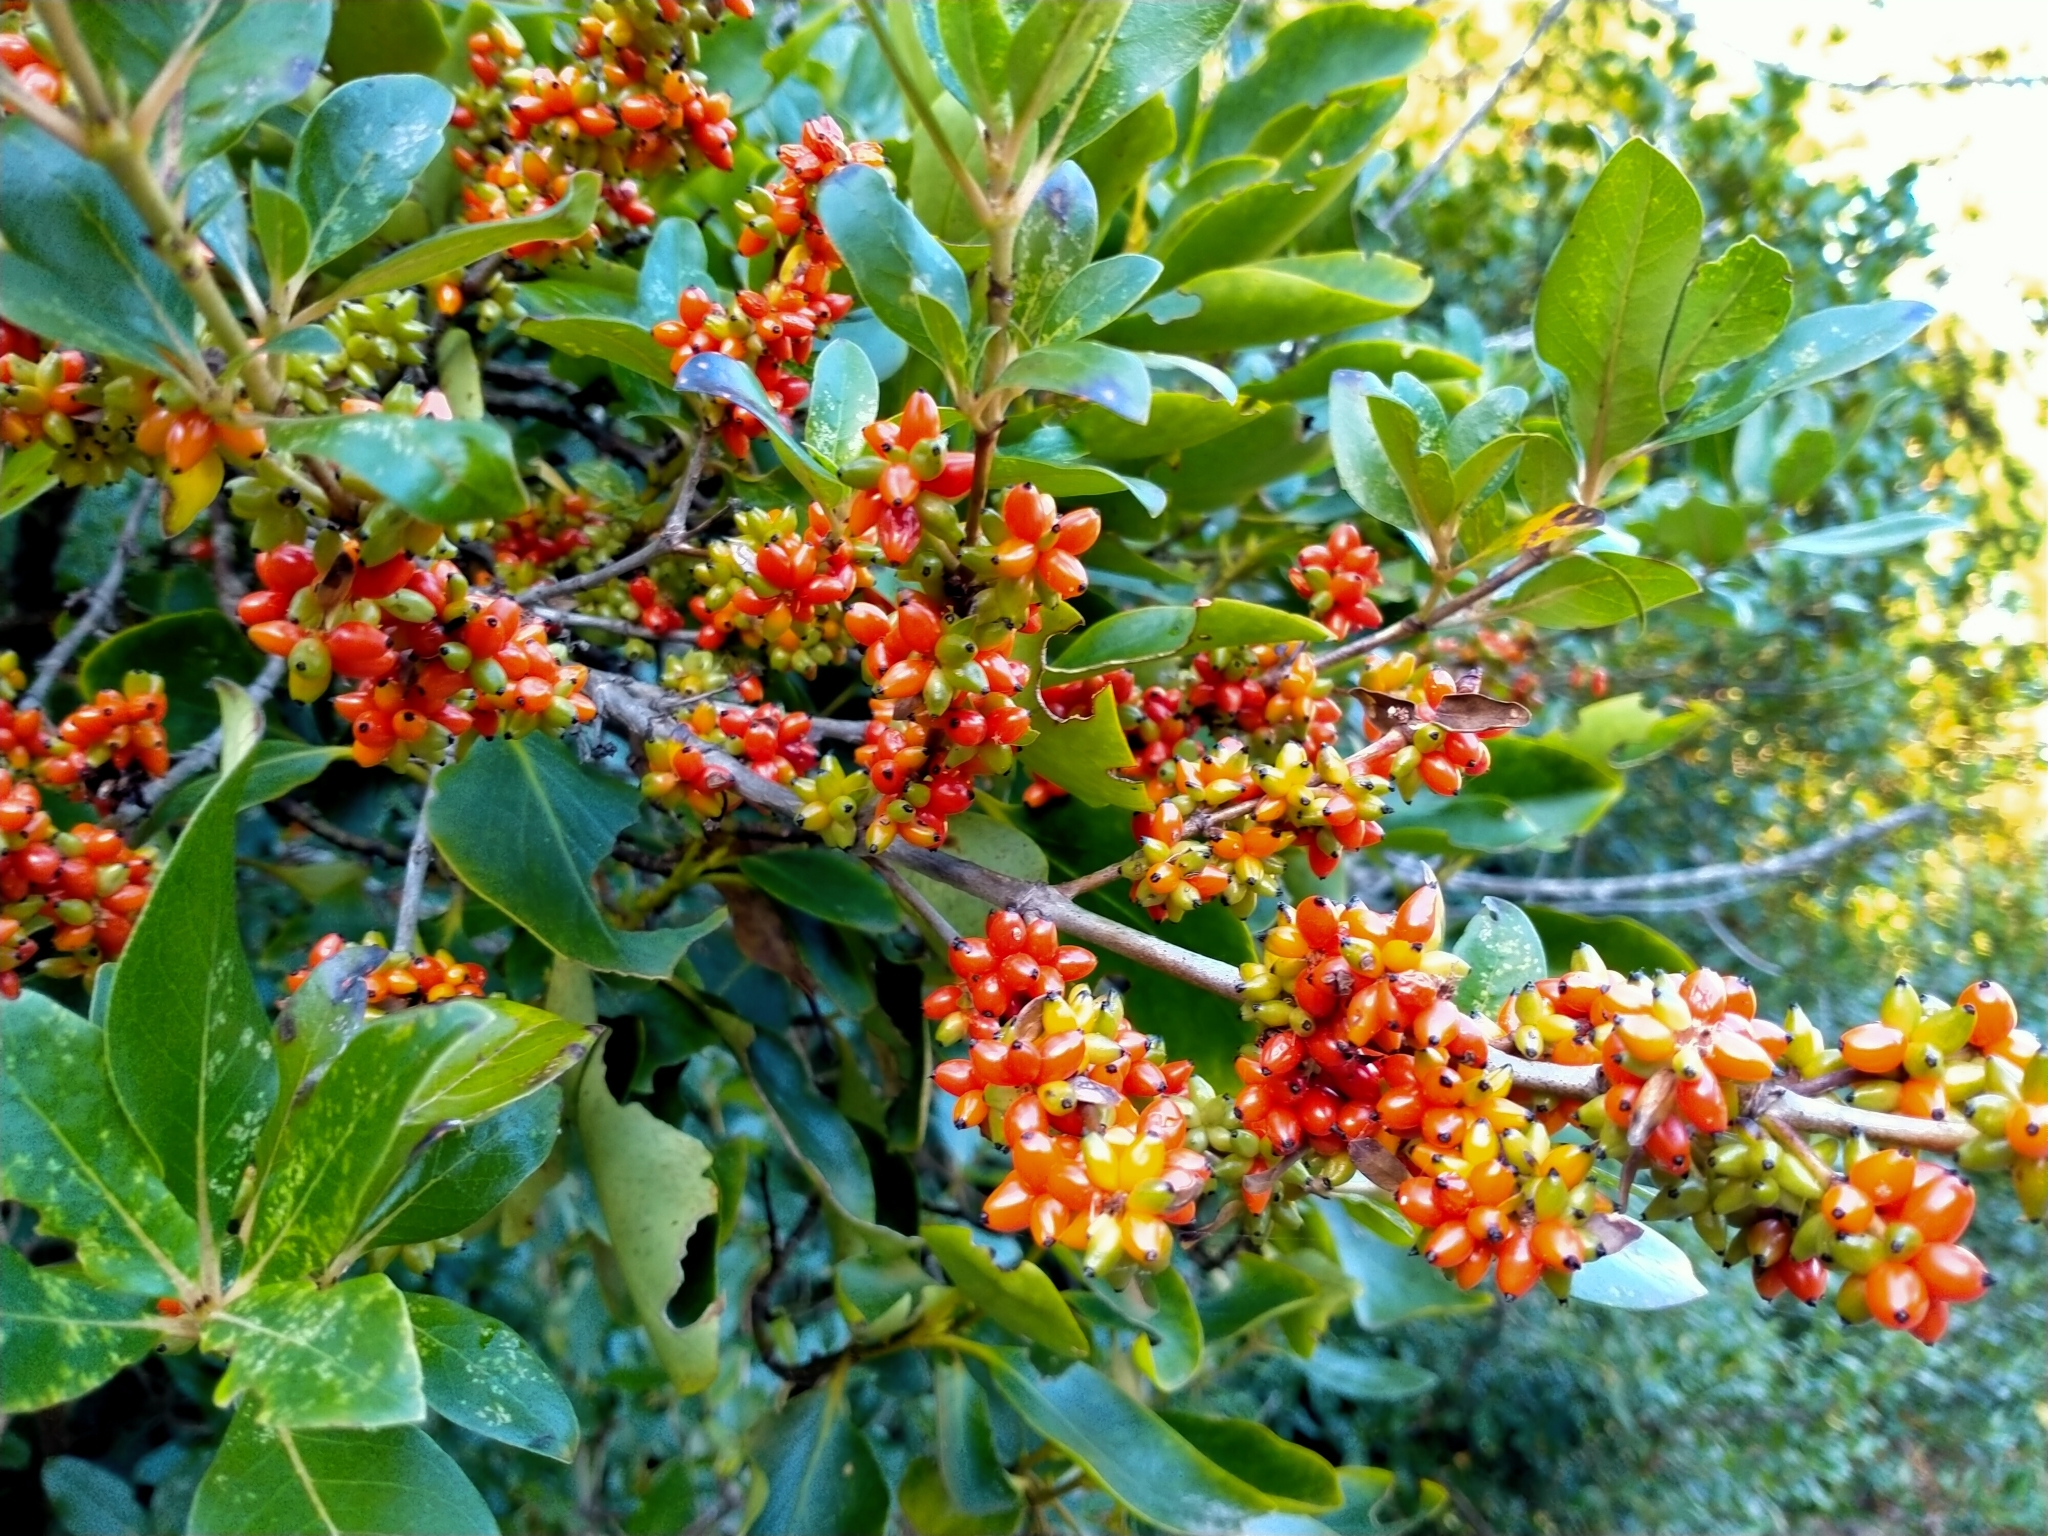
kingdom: Plantae
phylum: Tracheophyta
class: Magnoliopsida
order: Gentianales
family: Rubiaceae
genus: Coprosma
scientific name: Coprosma robusta
